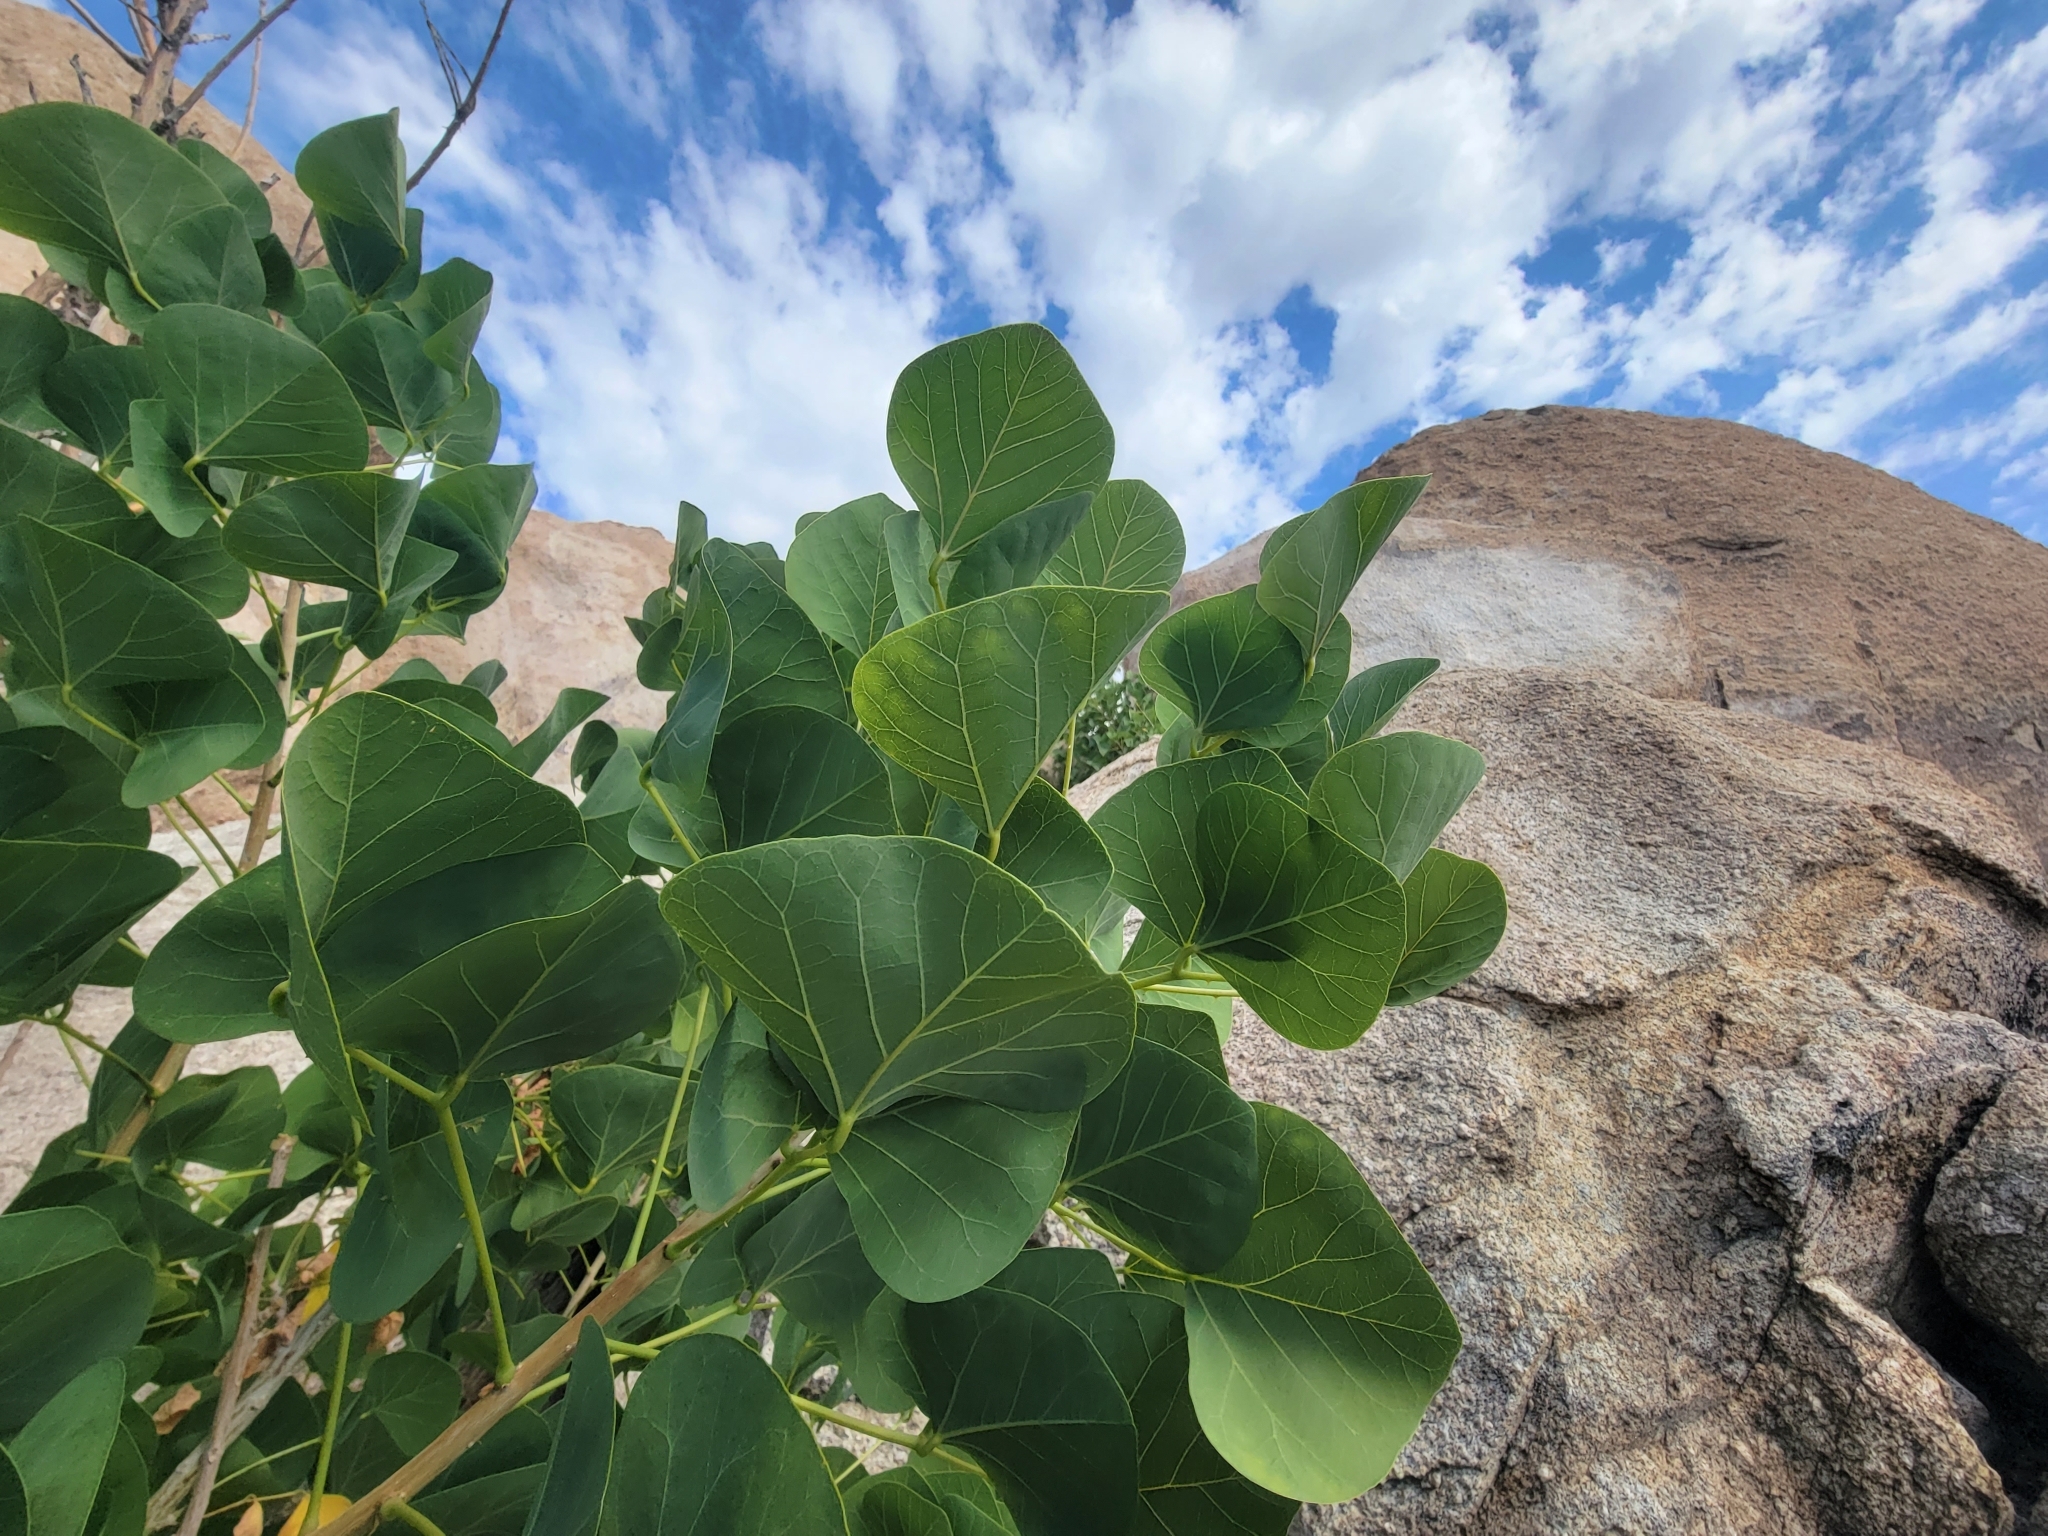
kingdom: Plantae
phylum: Tracheophyta
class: Magnoliopsida
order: Fabales
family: Fabaceae
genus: Erythrina
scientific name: Erythrina flabelliformis
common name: Chilicote
